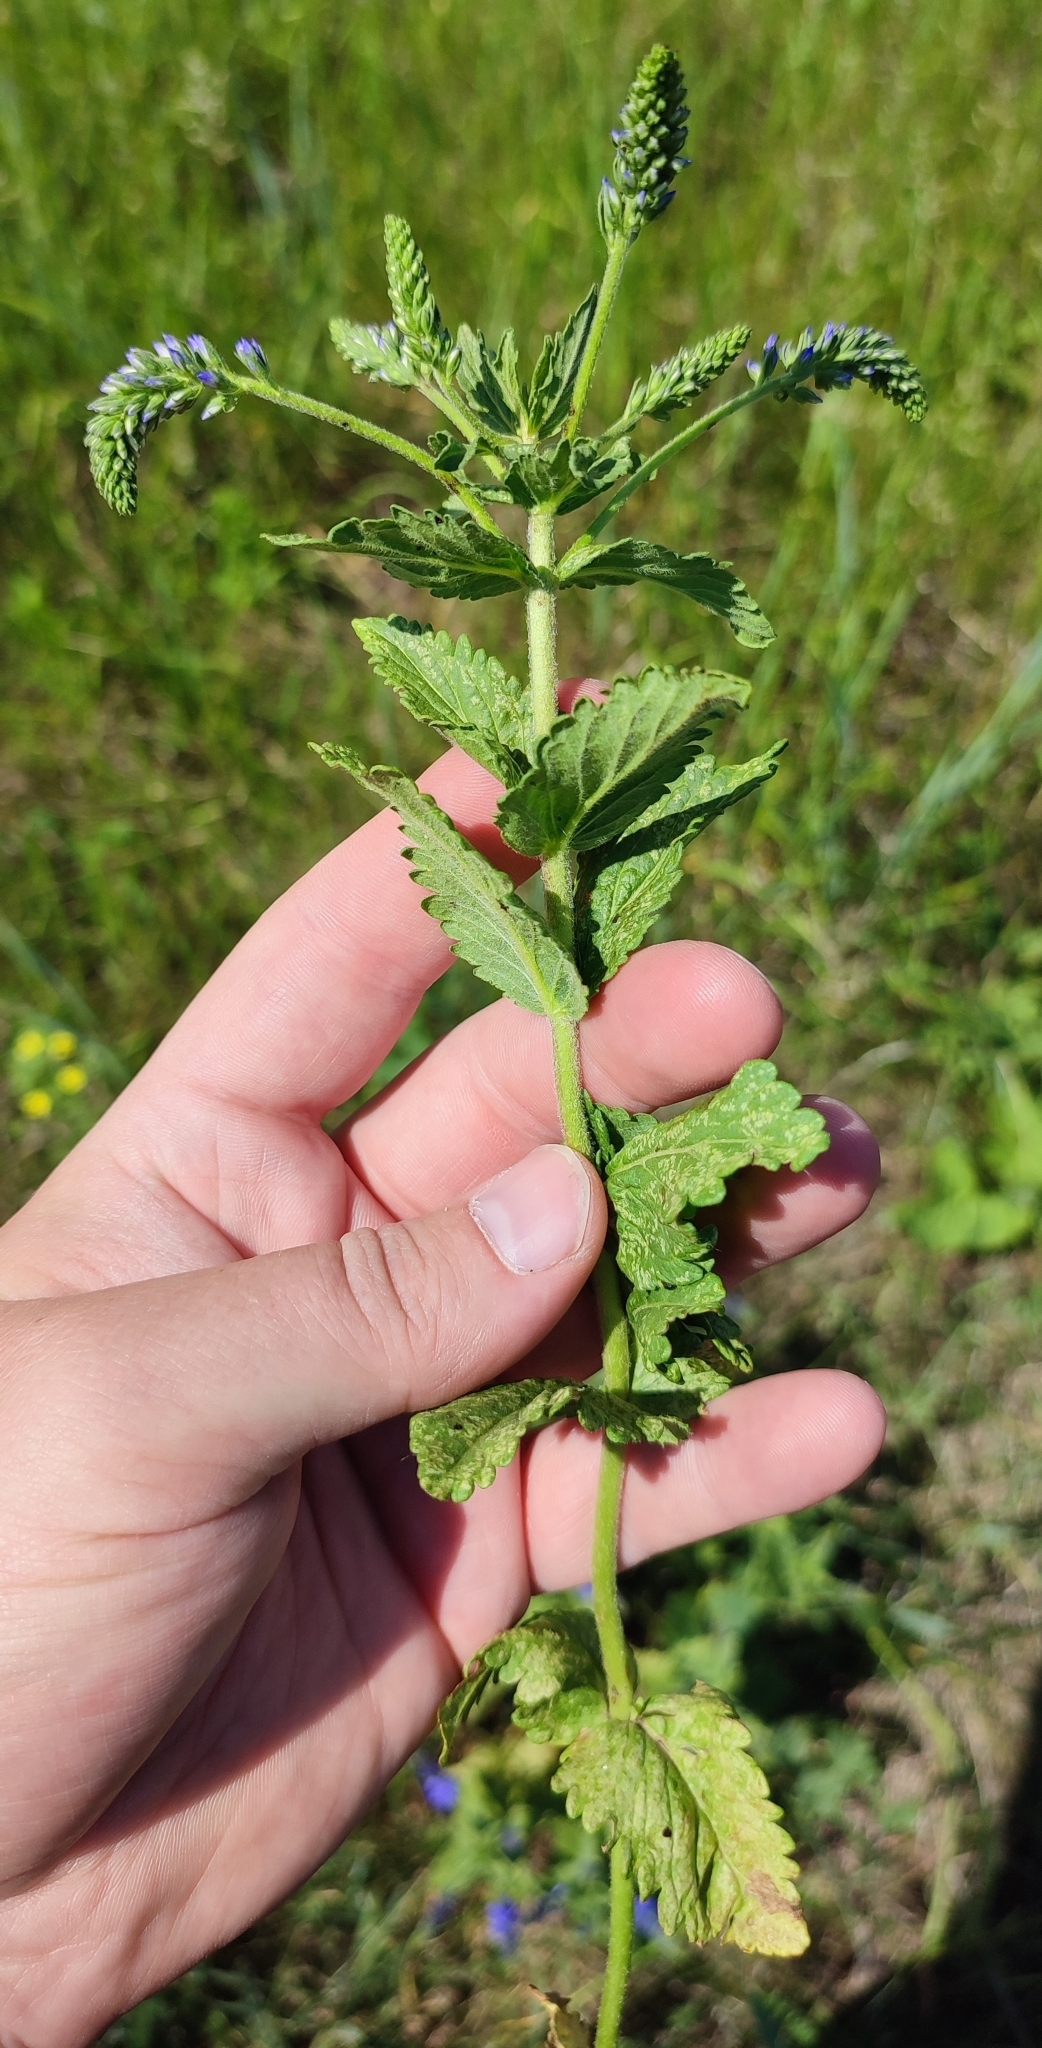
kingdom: Plantae
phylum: Tracheophyta
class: Magnoliopsida
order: Lamiales
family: Plantaginaceae
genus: Veronica
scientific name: Veronica teucrium
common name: Large speedwell
